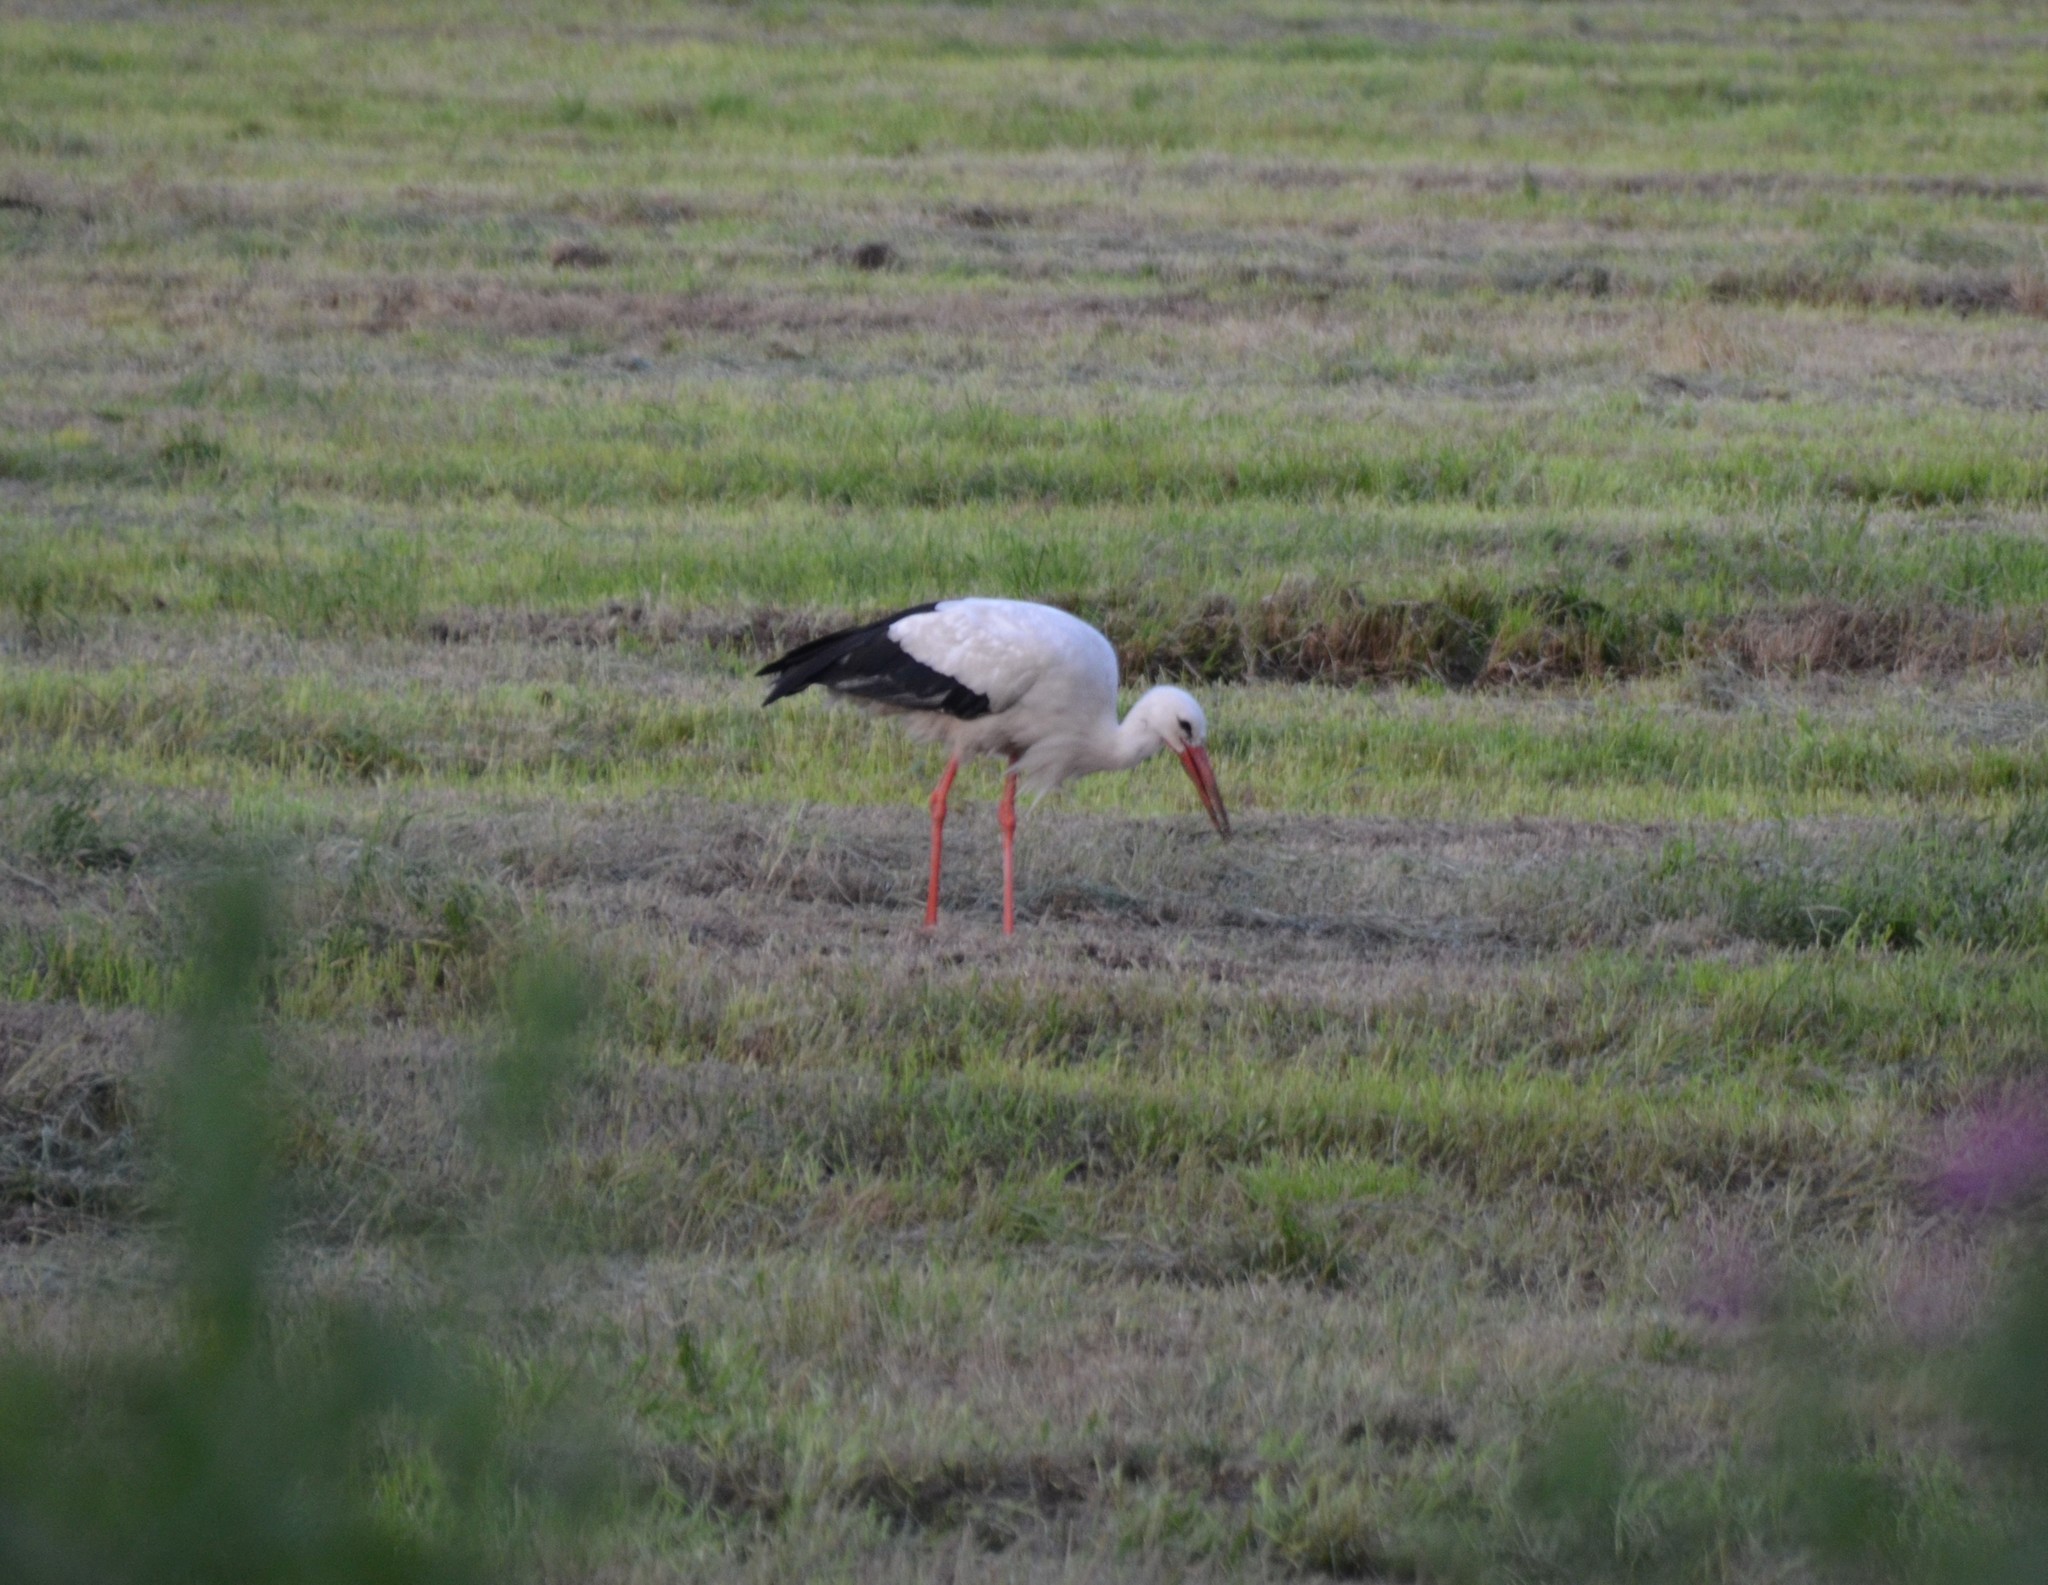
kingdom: Animalia
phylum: Chordata
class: Aves
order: Ciconiiformes
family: Ciconiidae
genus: Ciconia
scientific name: Ciconia ciconia
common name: White stork
